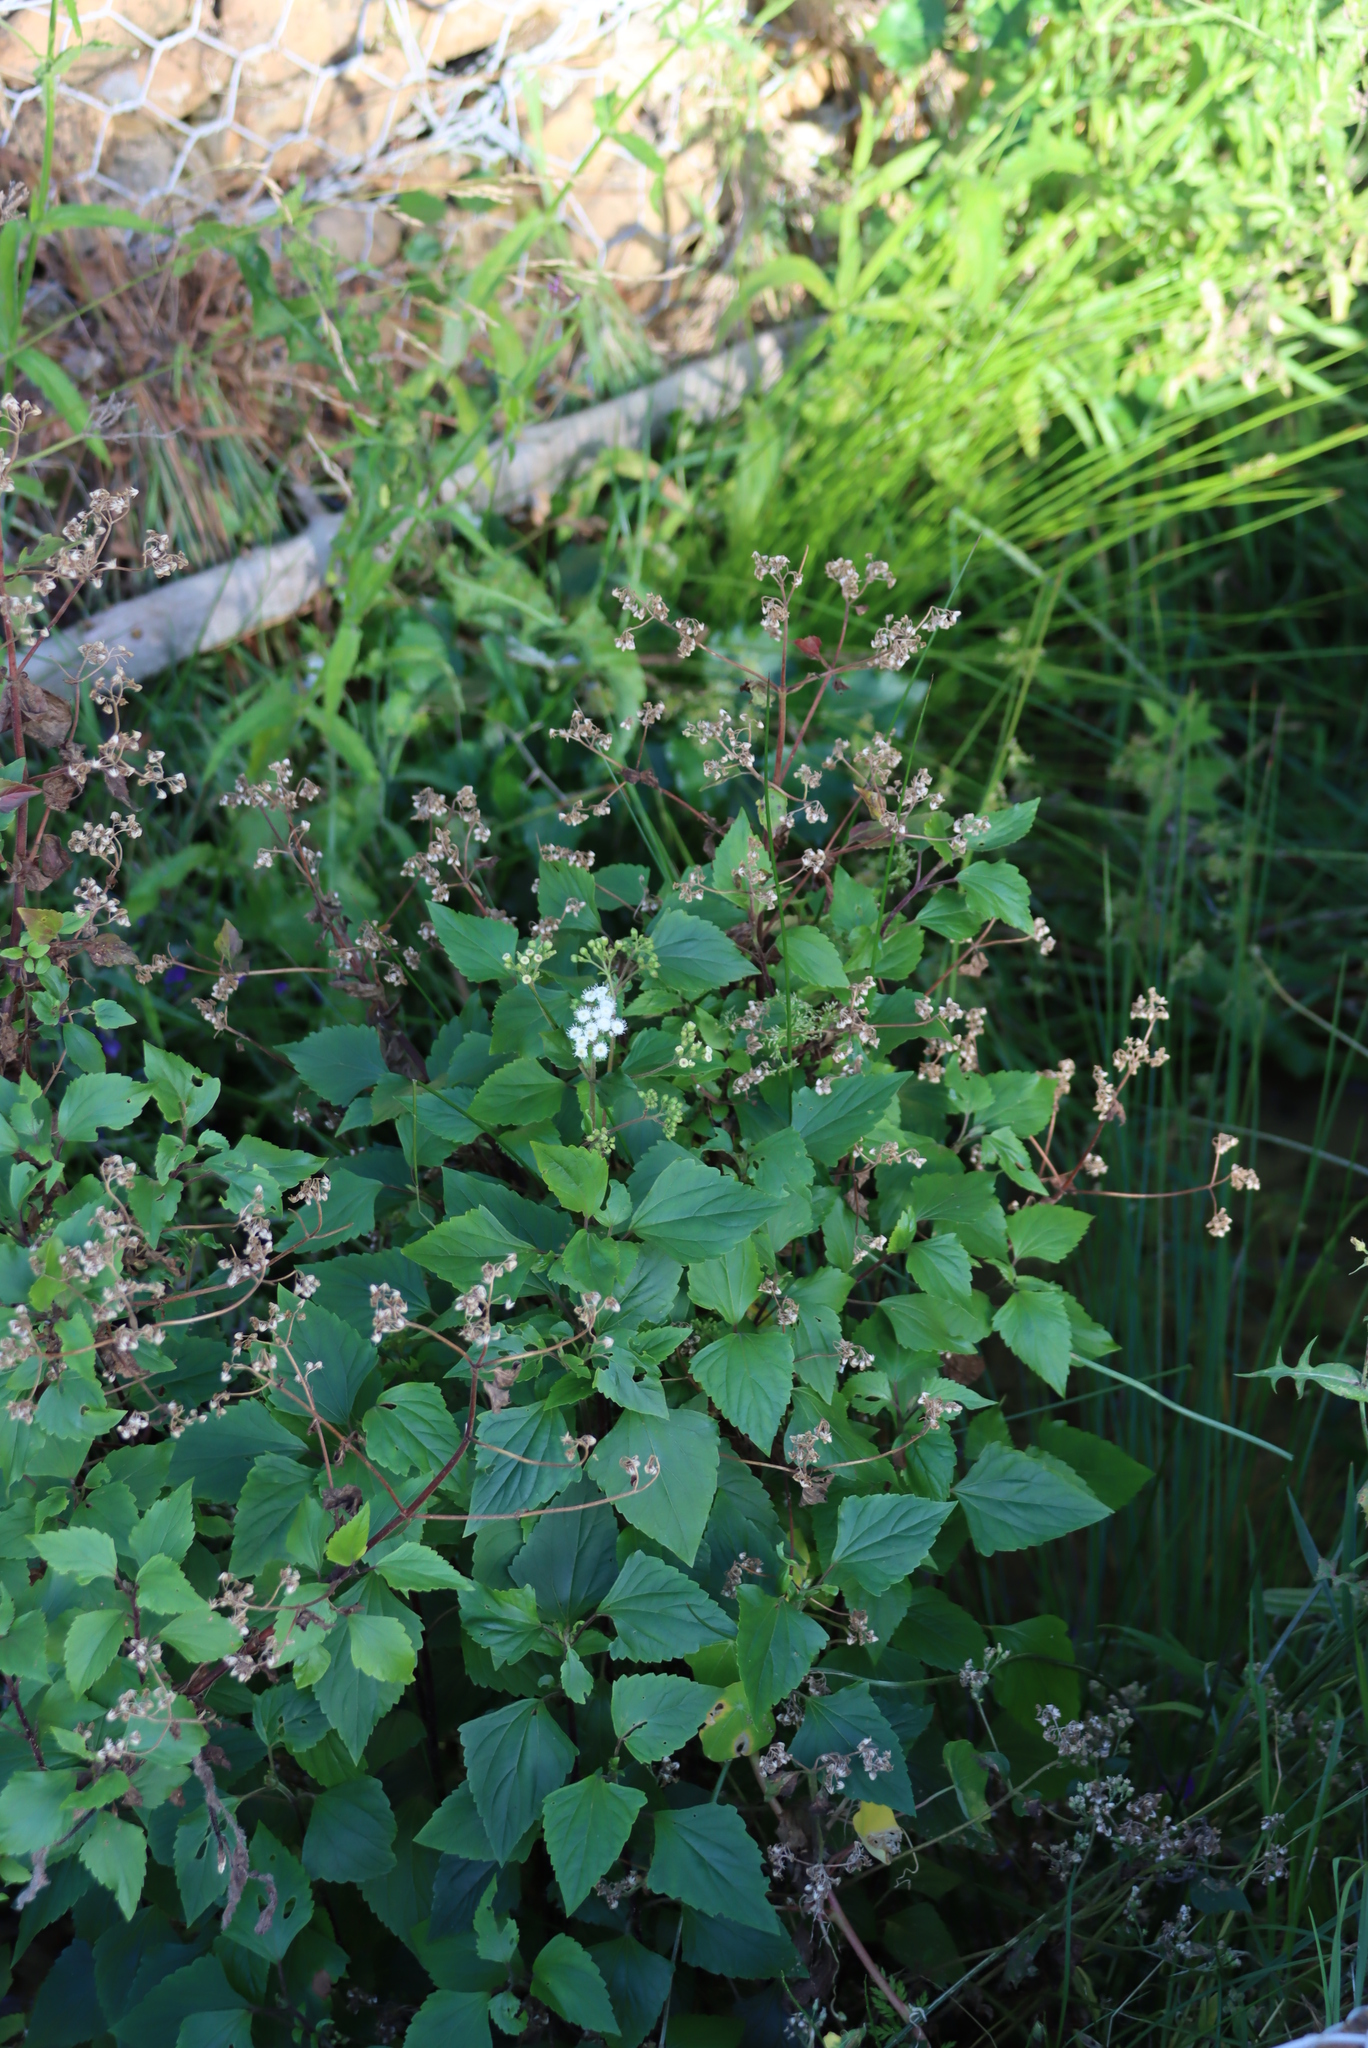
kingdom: Plantae
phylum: Tracheophyta
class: Magnoliopsida
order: Asterales
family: Asteraceae
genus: Ageratina
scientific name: Ageratina adenophora
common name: Sticky snakeroot
